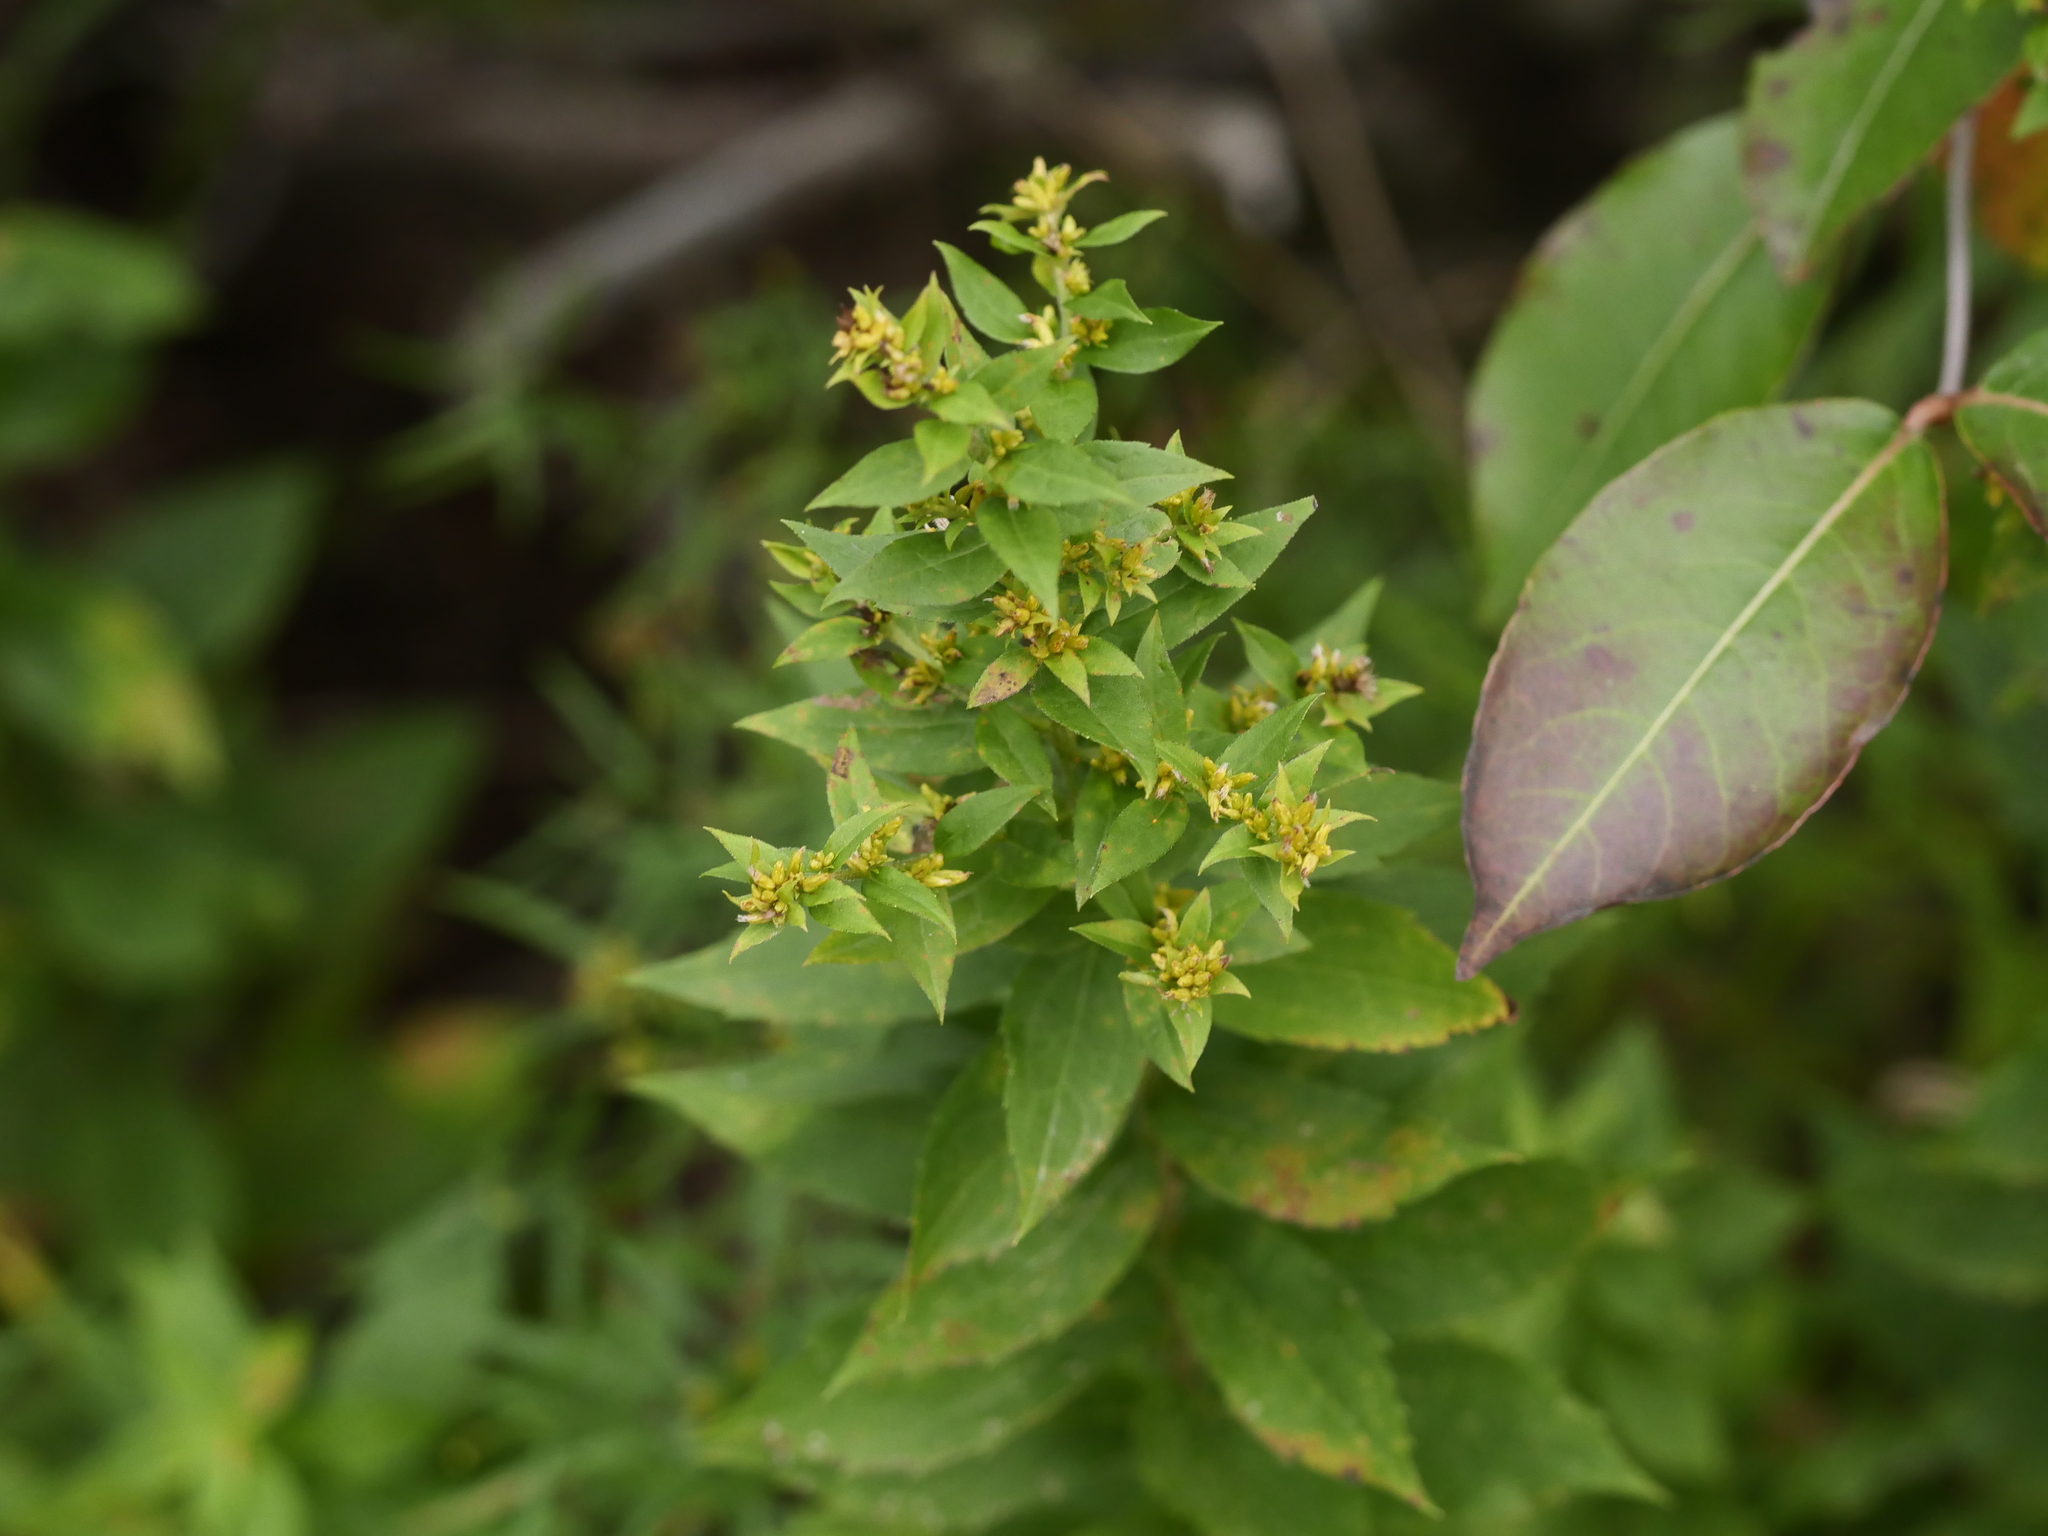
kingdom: Plantae
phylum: Tracheophyta
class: Magnoliopsida
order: Asterales
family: Asteraceae
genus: Solidago
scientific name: Solidago rugosa
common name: Rough-stemmed goldenrod
